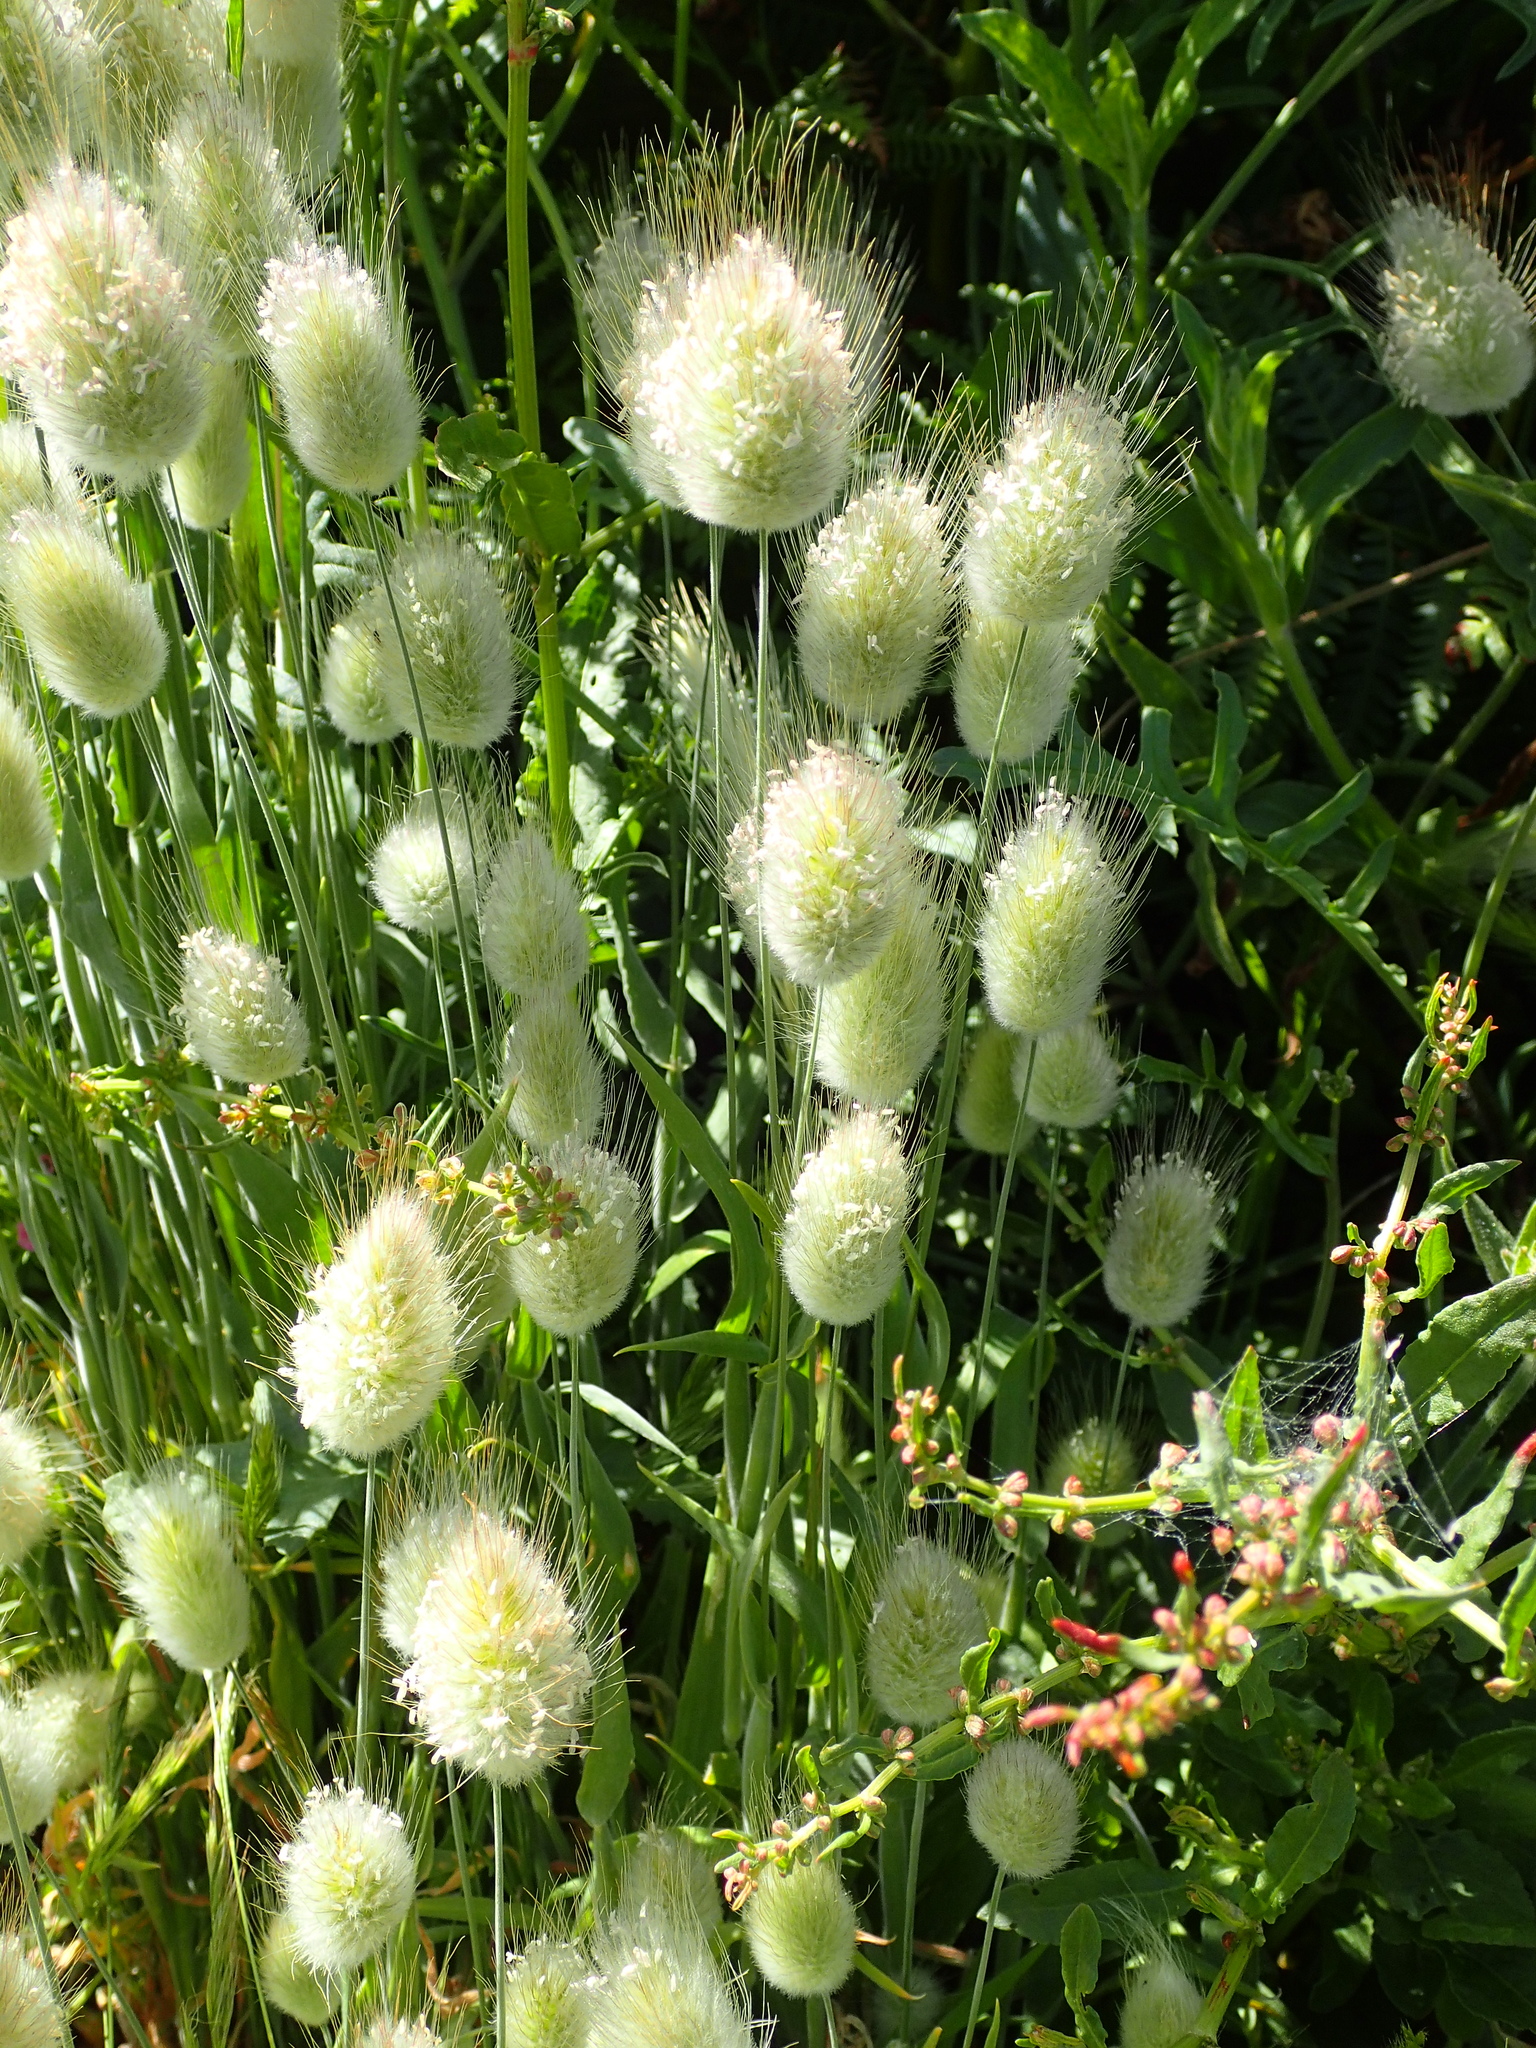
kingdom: Plantae
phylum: Tracheophyta
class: Liliopsida
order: Poales
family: Poaceae
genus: Lagurus
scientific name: Lagurus ovatus
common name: Hare's-tail
